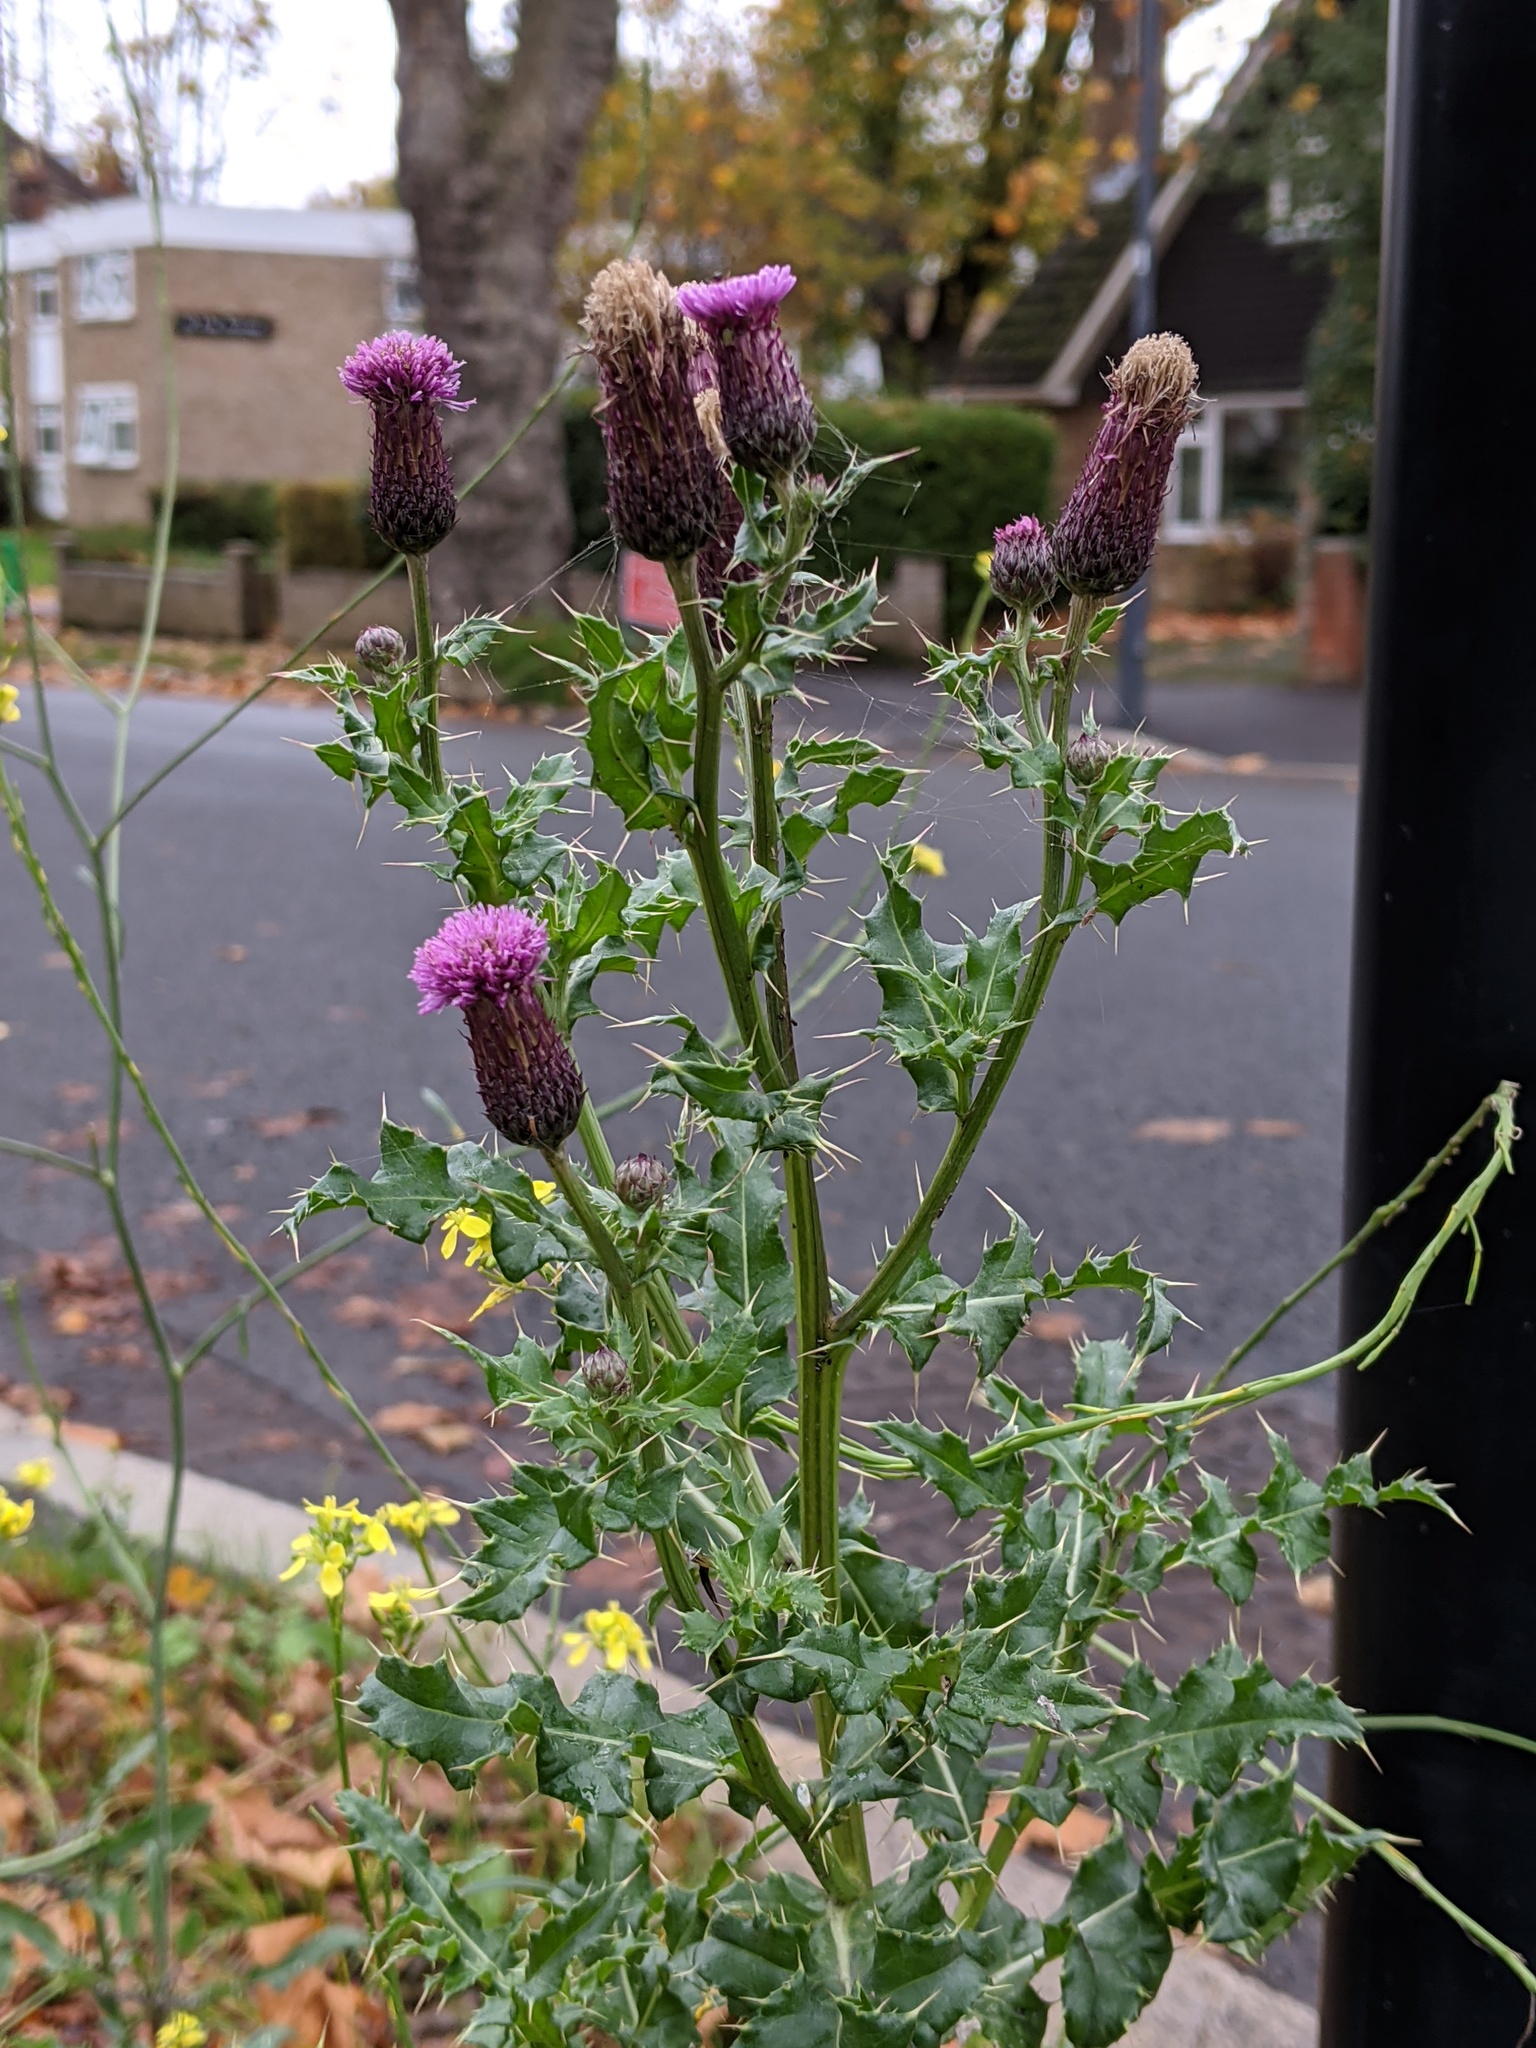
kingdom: Plantae
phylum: Tracheophyta
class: Magnoliopsida
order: Asterales
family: Asteraceae
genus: Cirsium
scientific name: Cirsium arvense
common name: Creeping thistle
